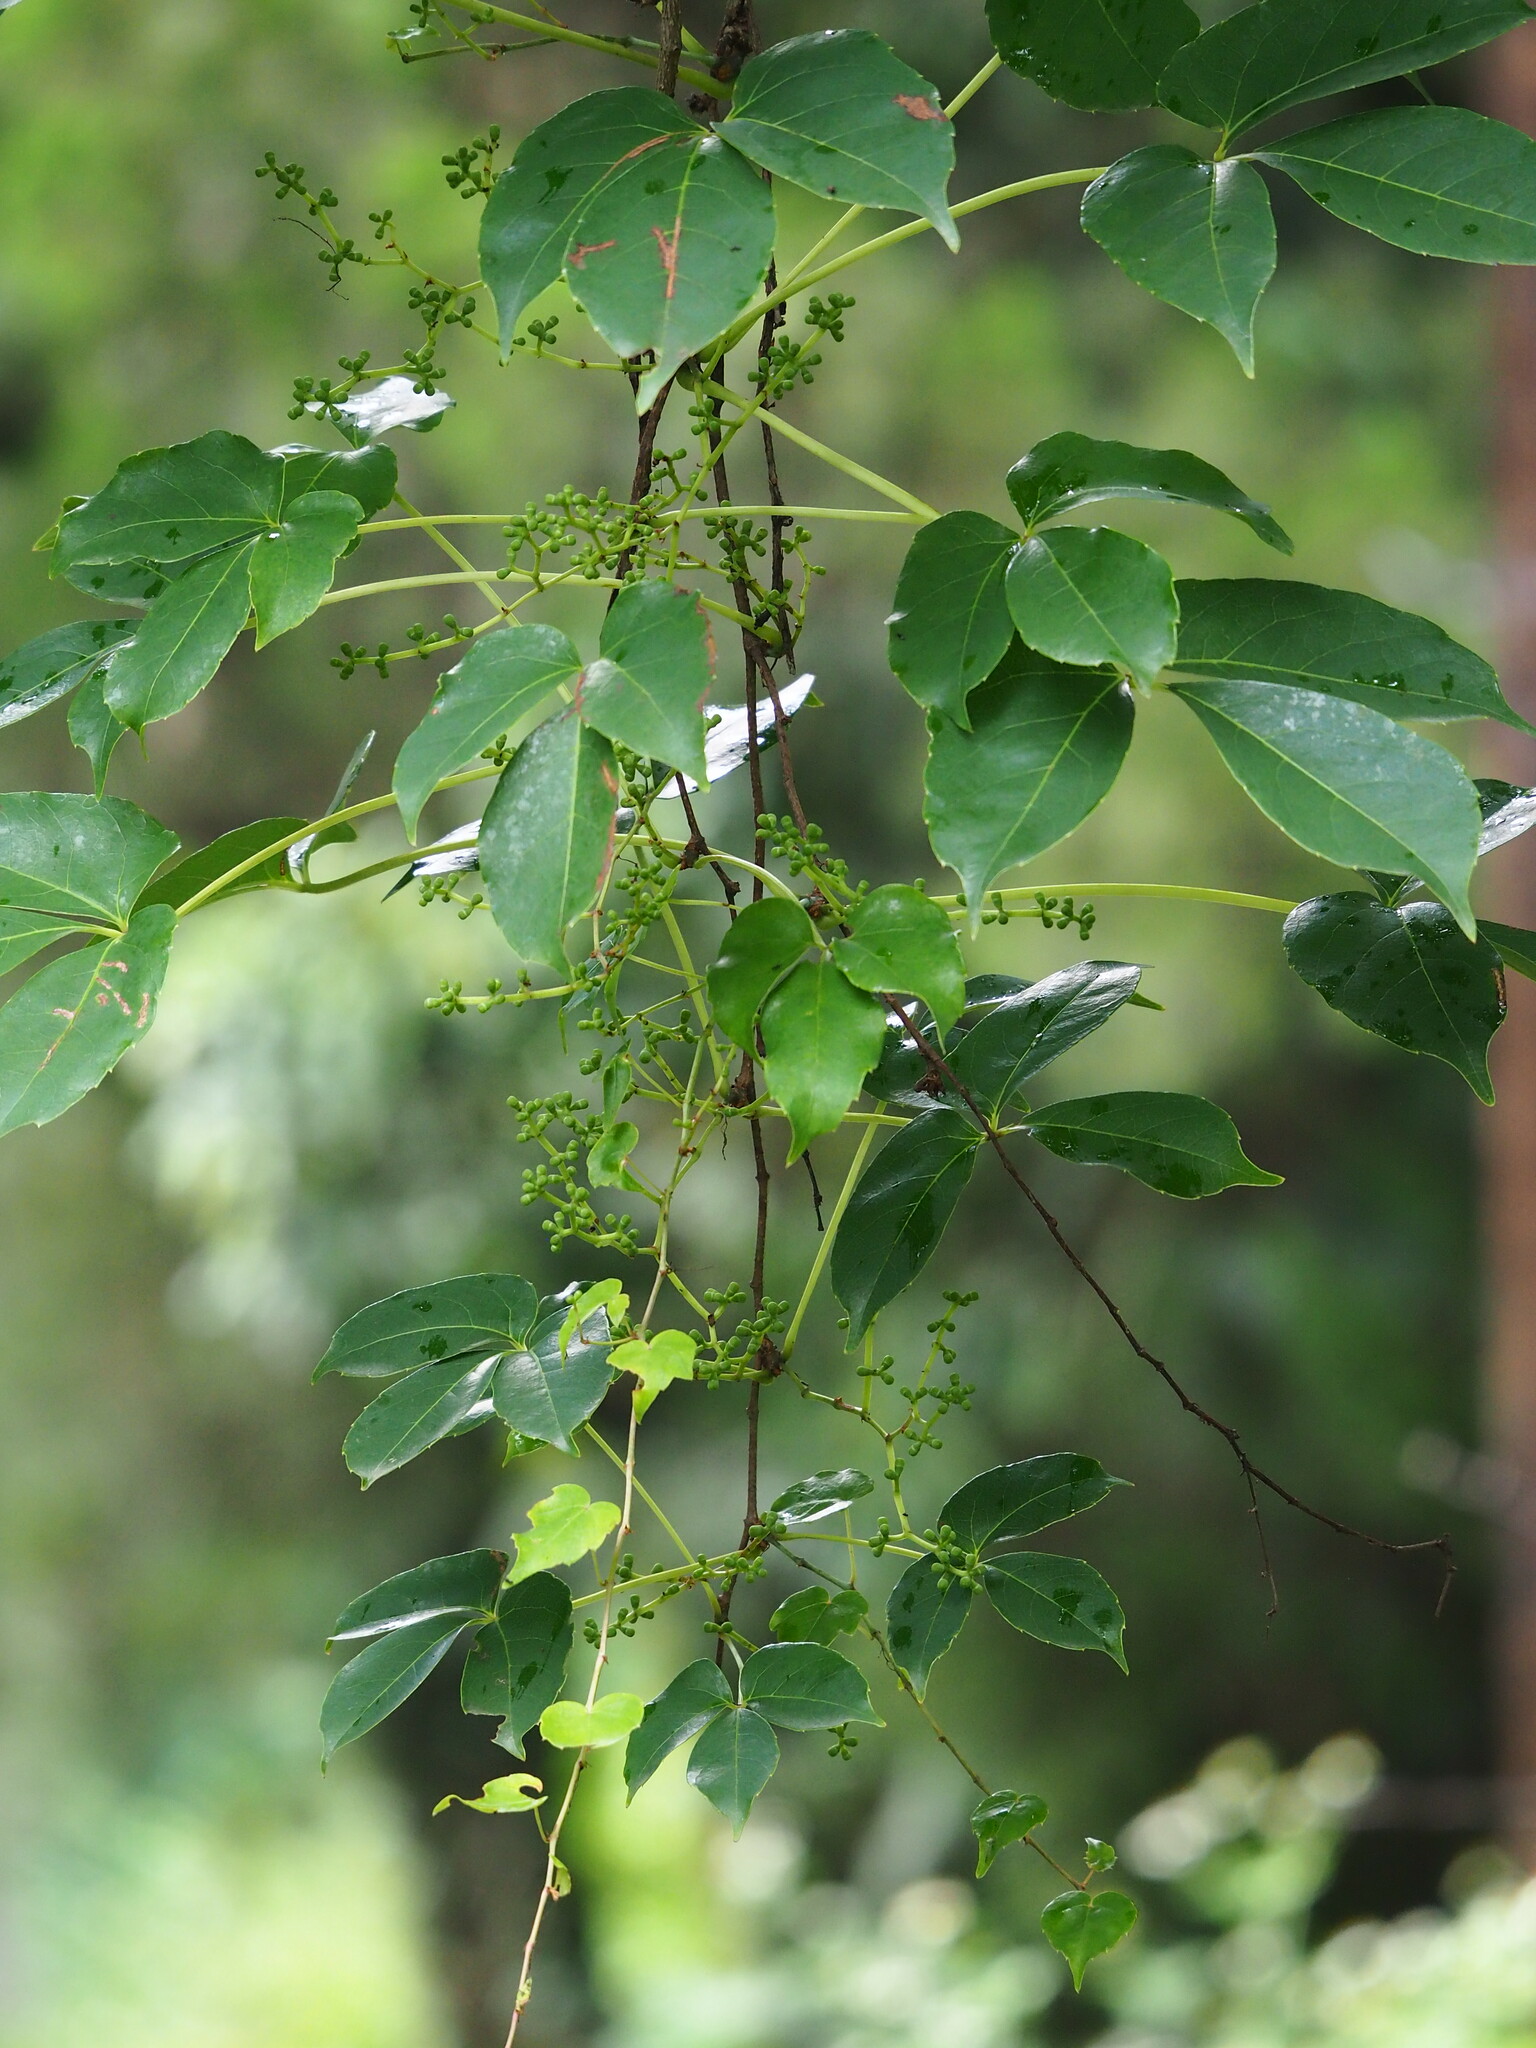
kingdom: Plantae
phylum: Tracheophyta
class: Magnoliopsida
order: Vitales
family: Vitaceae
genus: Parthenocissus
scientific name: Parthenocissus tricuspidata
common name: Boston ivy
